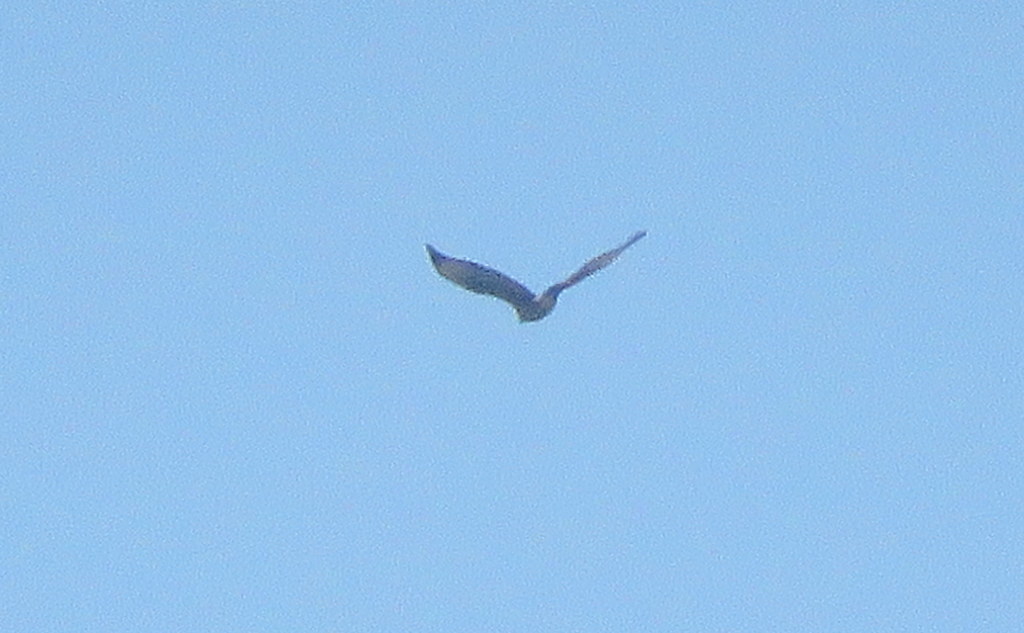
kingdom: Animalia
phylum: Chordata
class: Aves
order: Accipitriformes
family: Accipitridae
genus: Parabuteo
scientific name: Parabuteo unicinctus
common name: Harris's hawk
